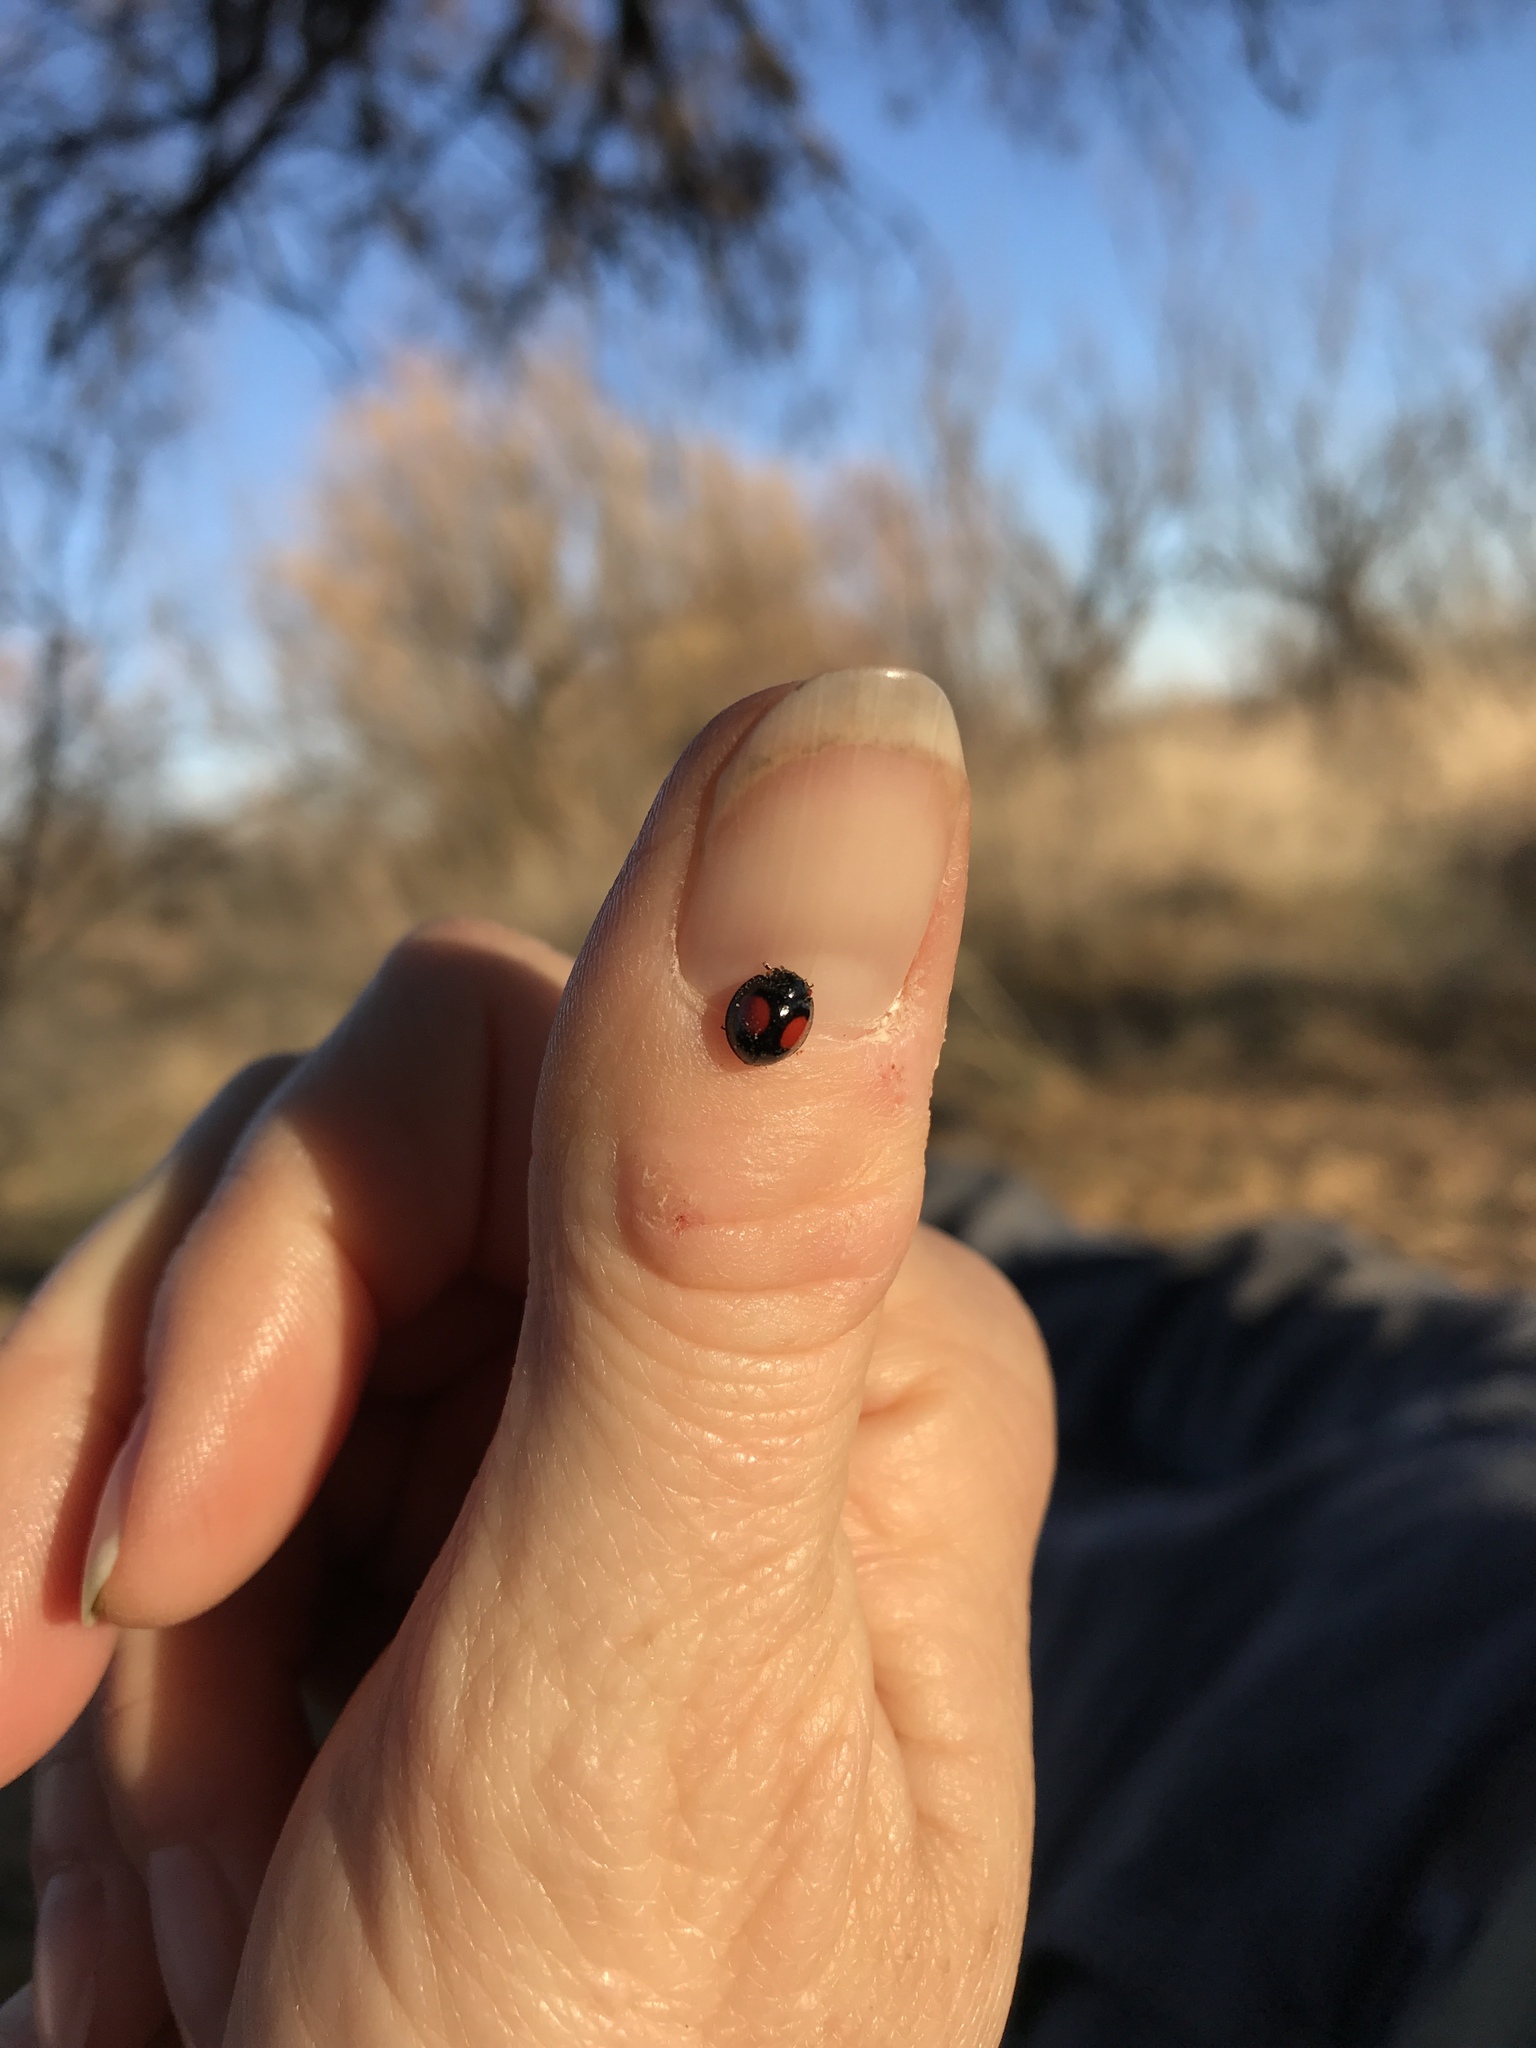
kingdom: Animalia
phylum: Arthropoda
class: Insecta
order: Coleoptera
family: Coccinellidae
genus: Chilocorus
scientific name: Chilocorus cacti
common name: Cactus lady beetle
